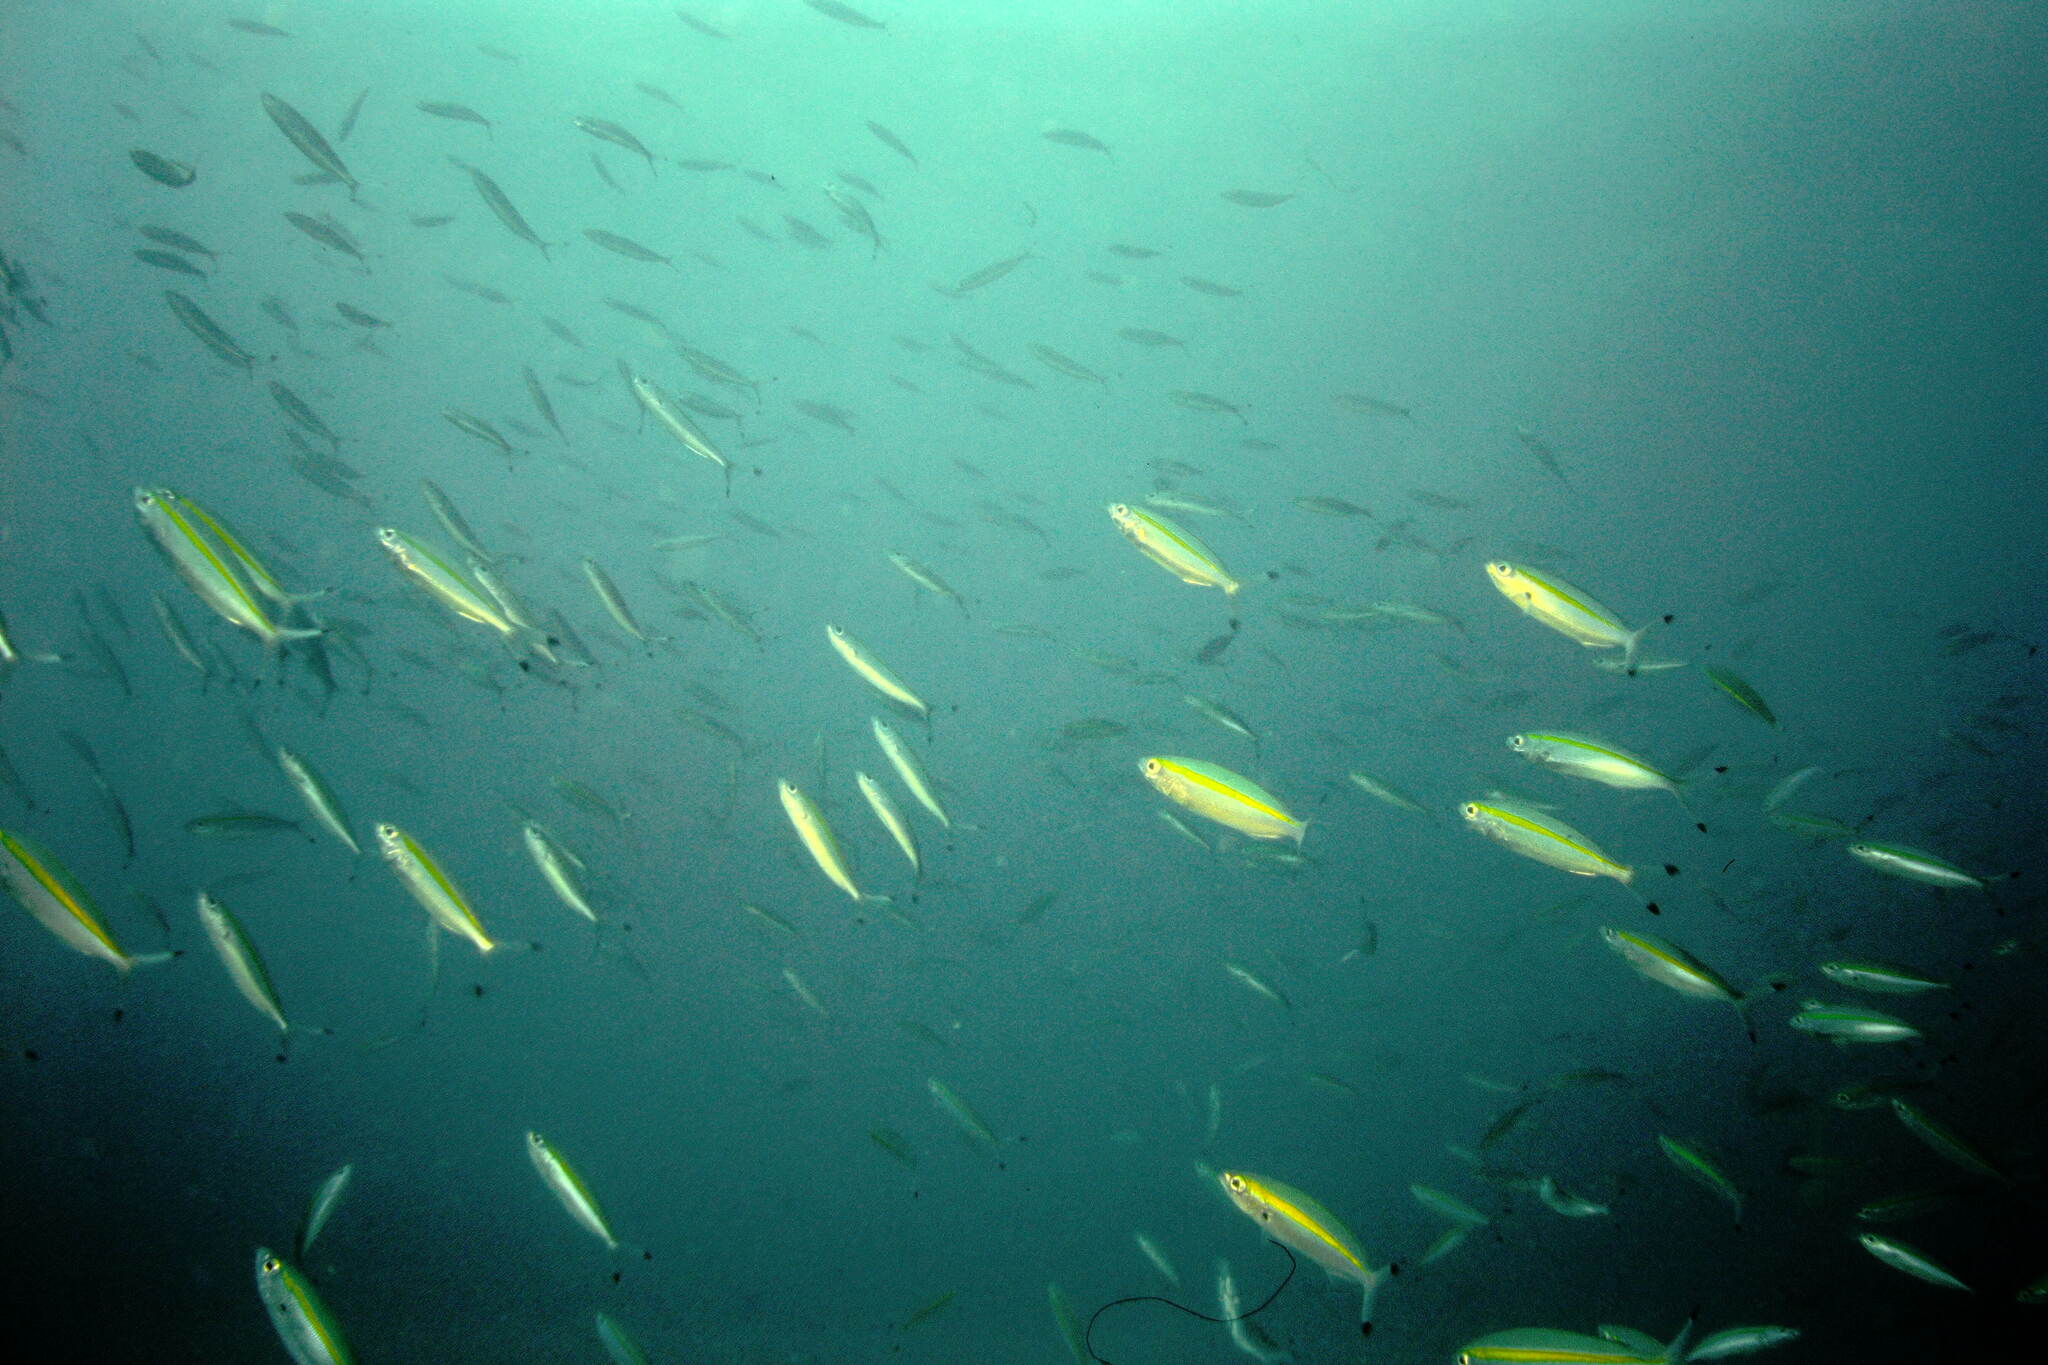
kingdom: Animalia
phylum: Chordata
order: Perciformes
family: Caesionidae
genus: Pterocaesio
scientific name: Pterocaesio chrysozona
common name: Goldband fusilier
